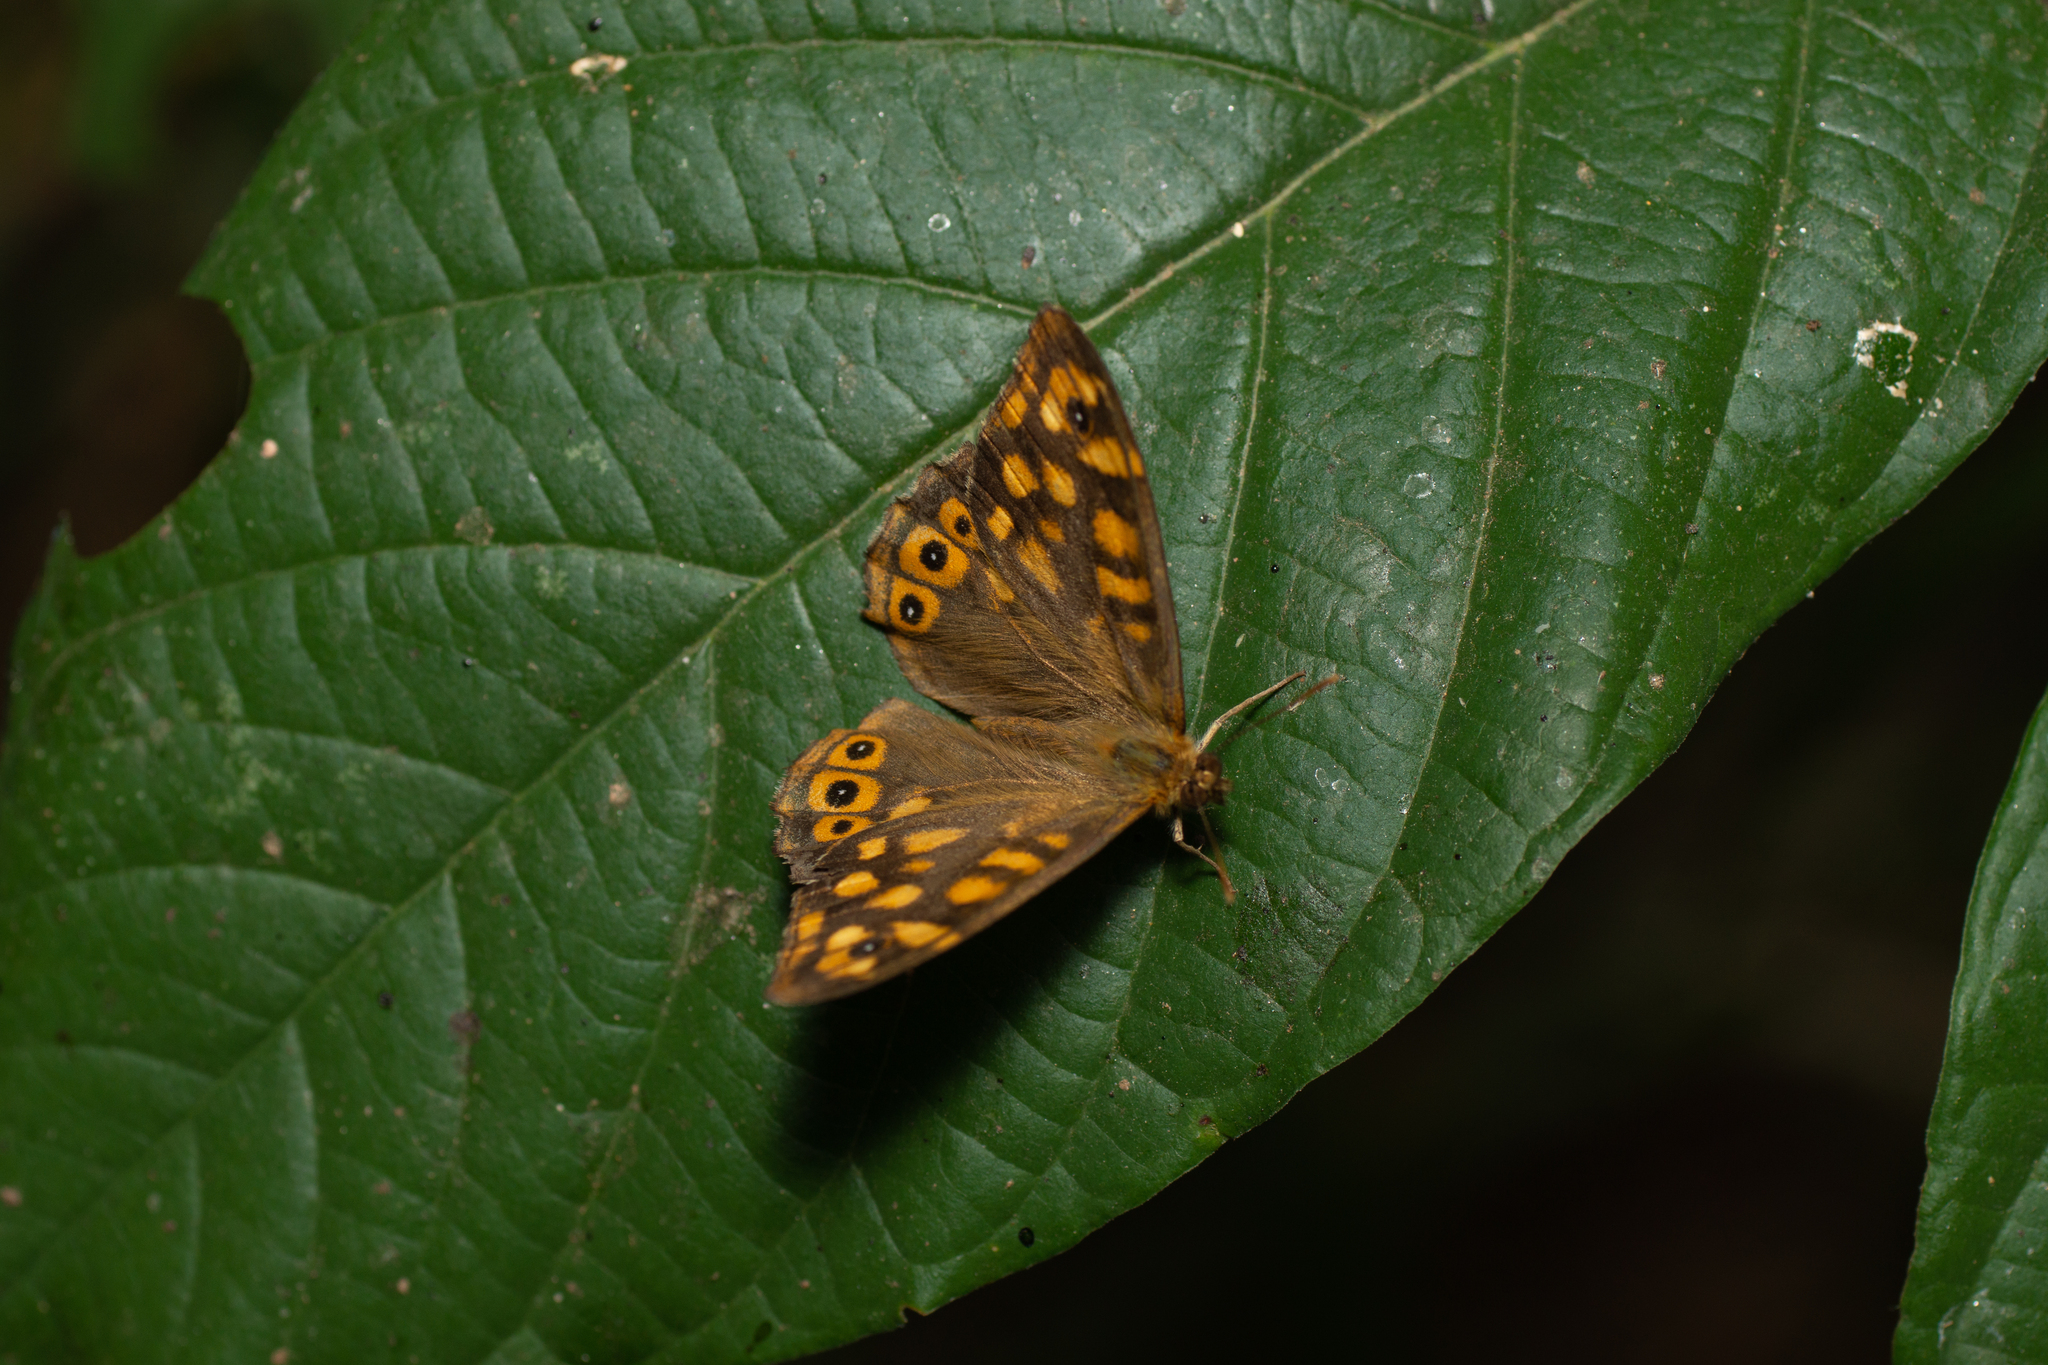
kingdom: Animalia
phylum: Arthropoda
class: Insecta
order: Lepidoptera
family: Nymphalidae
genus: Pararge
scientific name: Pararge aegeria
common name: Speckled wood
